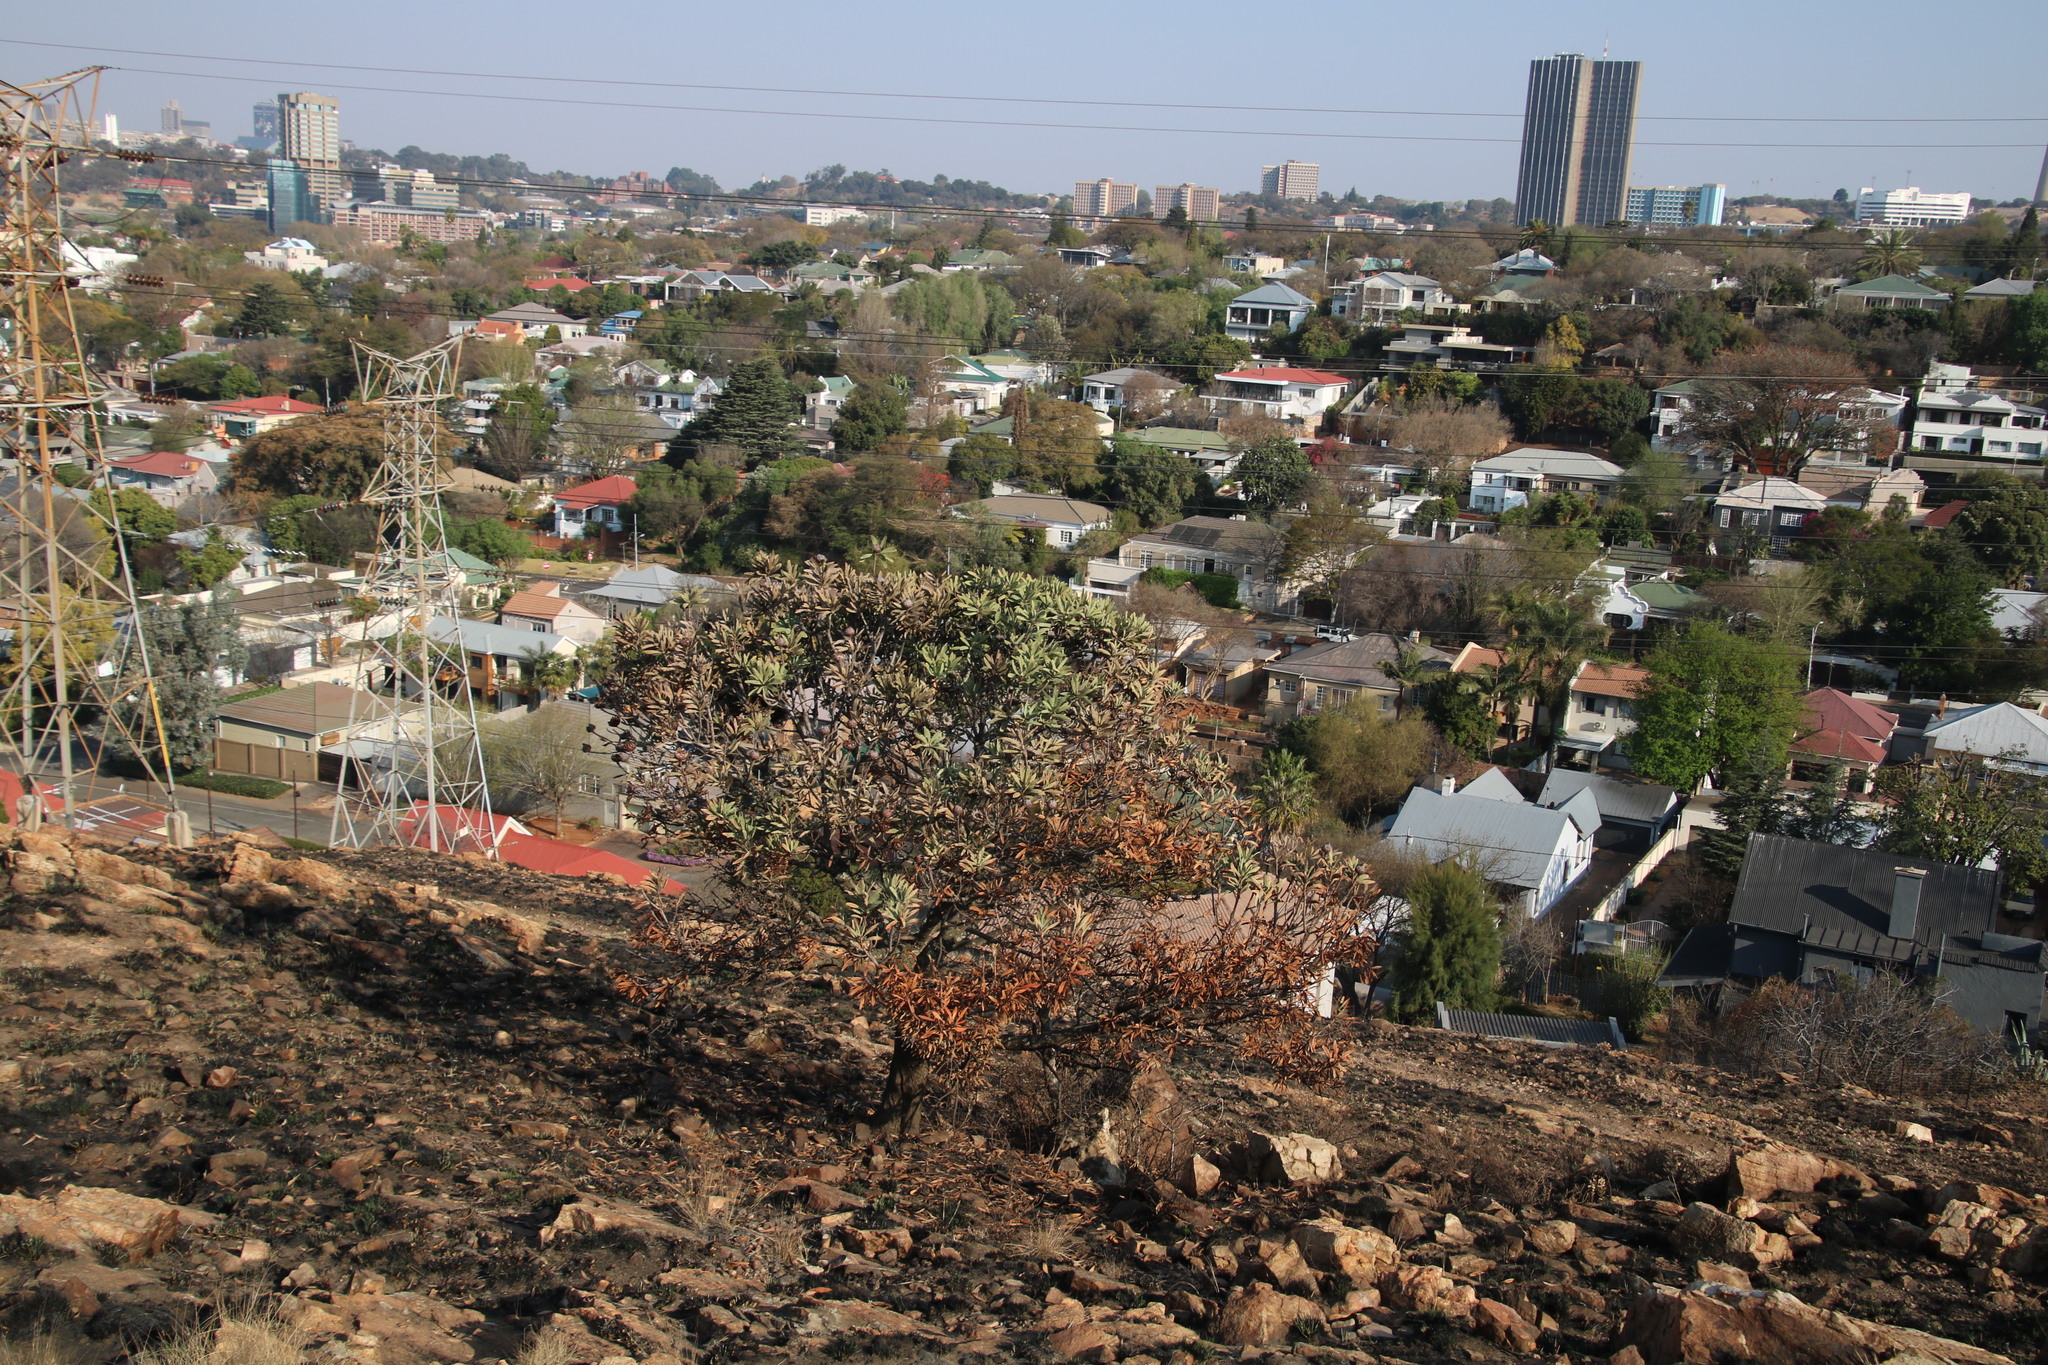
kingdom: Plantae
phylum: Tracheophyta
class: Magnoliopsida
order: Proteales
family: Proteaceae
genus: Protea
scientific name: Protea caffra
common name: Common sugarbush
